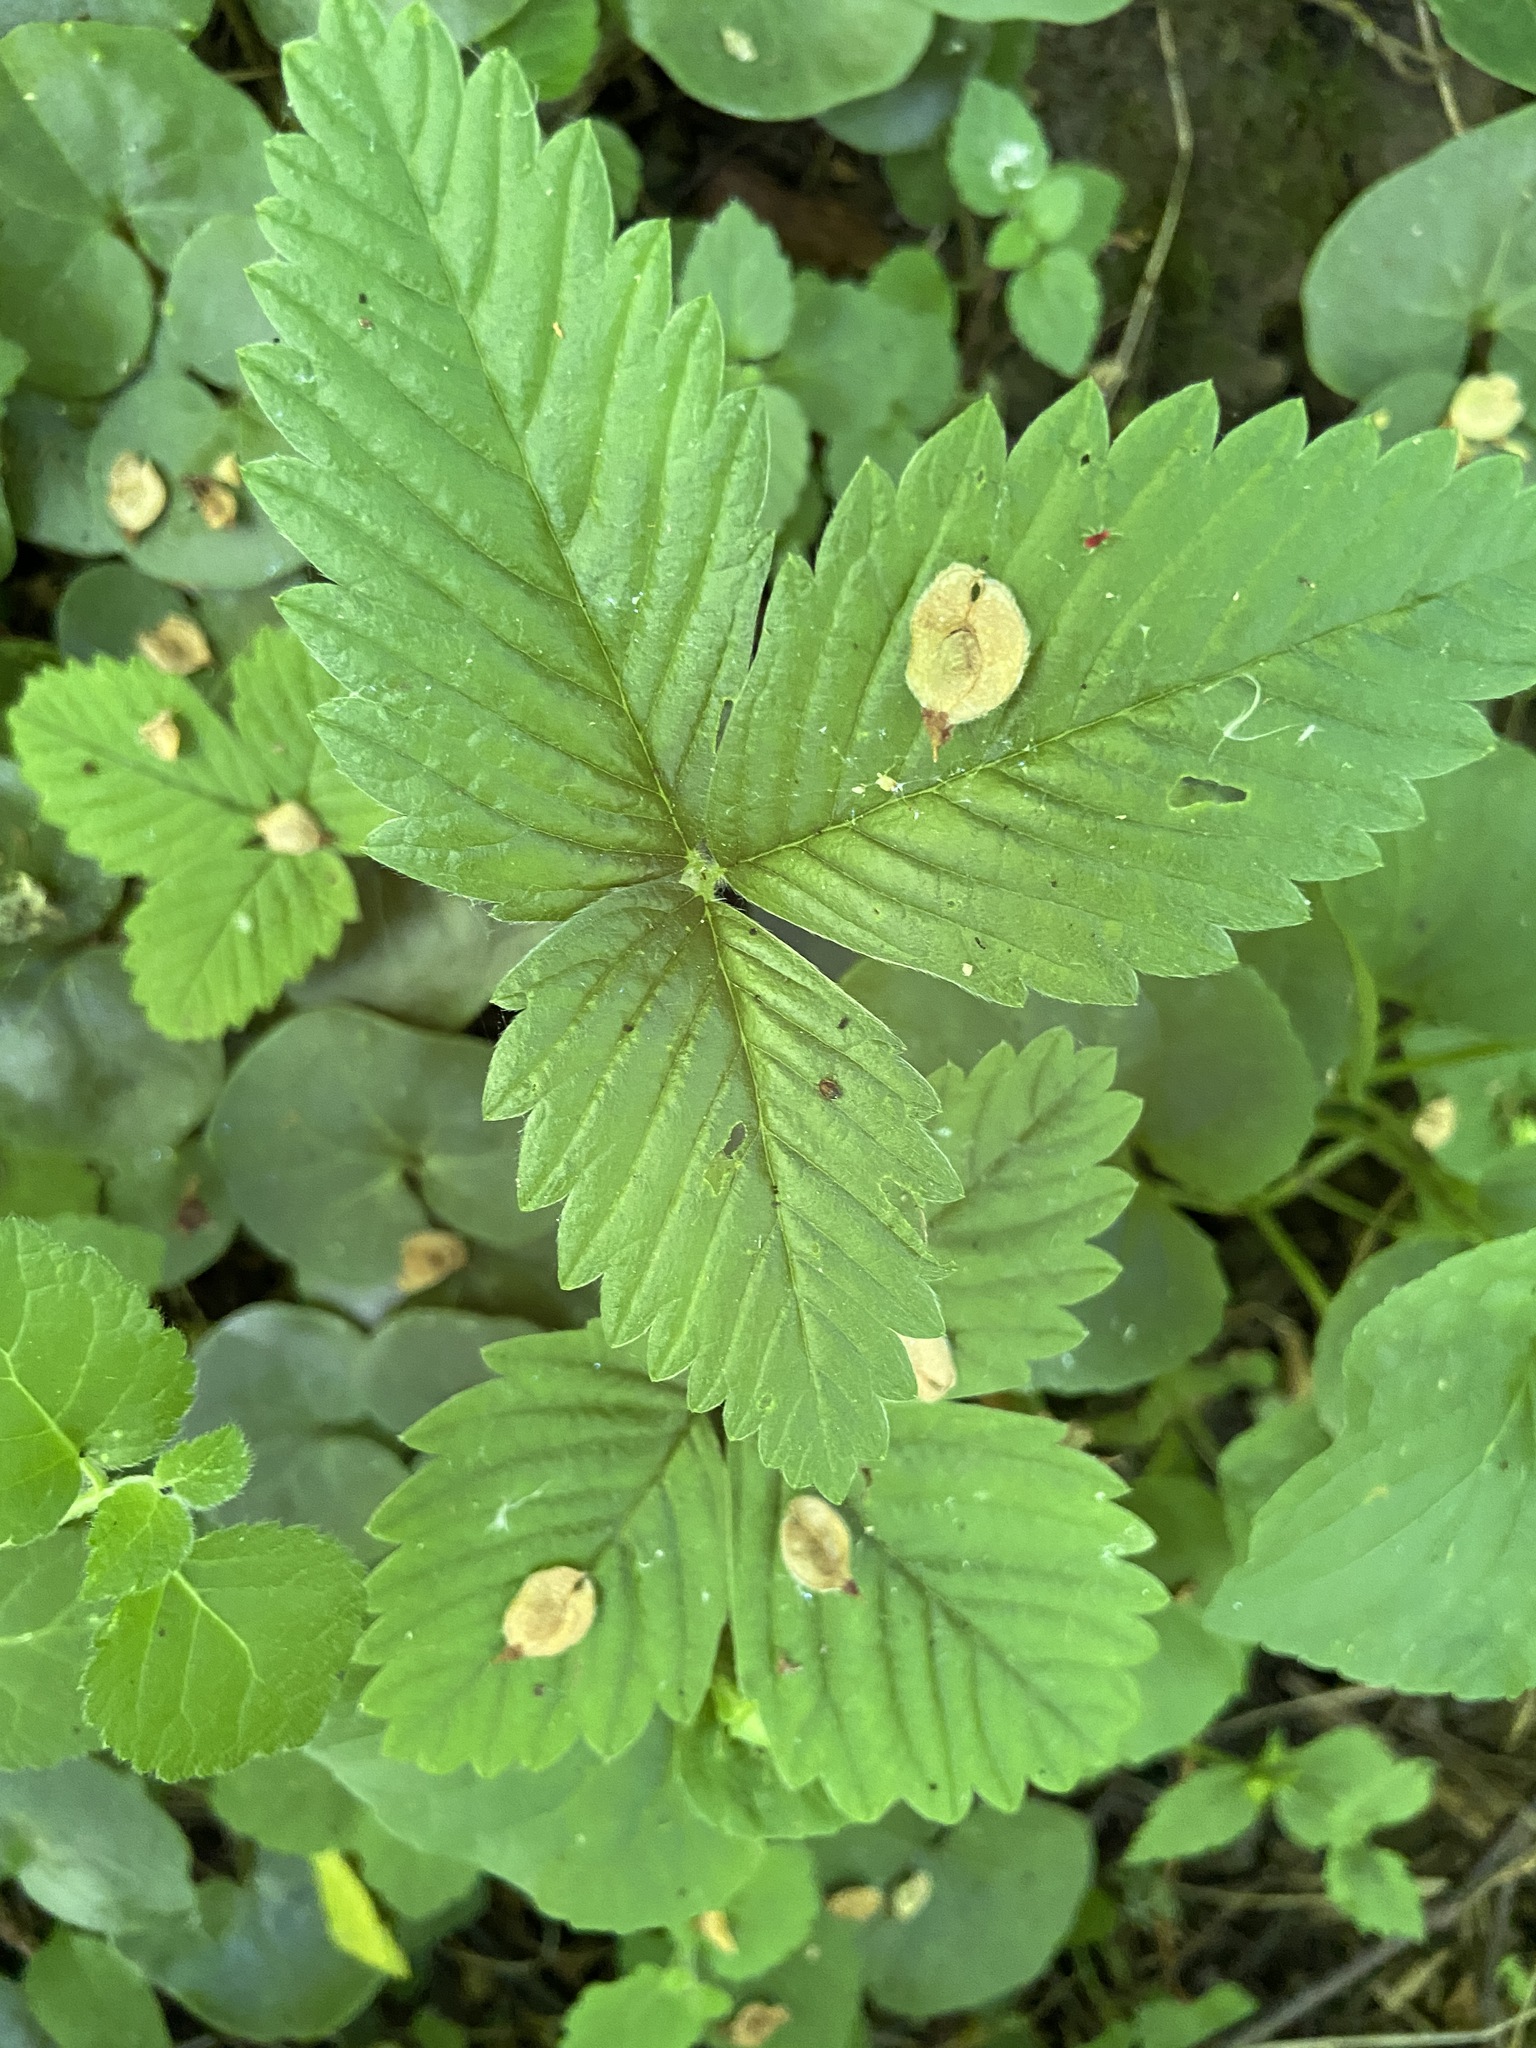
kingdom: Plantae
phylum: Tracheophyta
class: Magnoliopsida
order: Rosales
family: Rosaceae
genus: Fragaria
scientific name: Fragaria moschata
